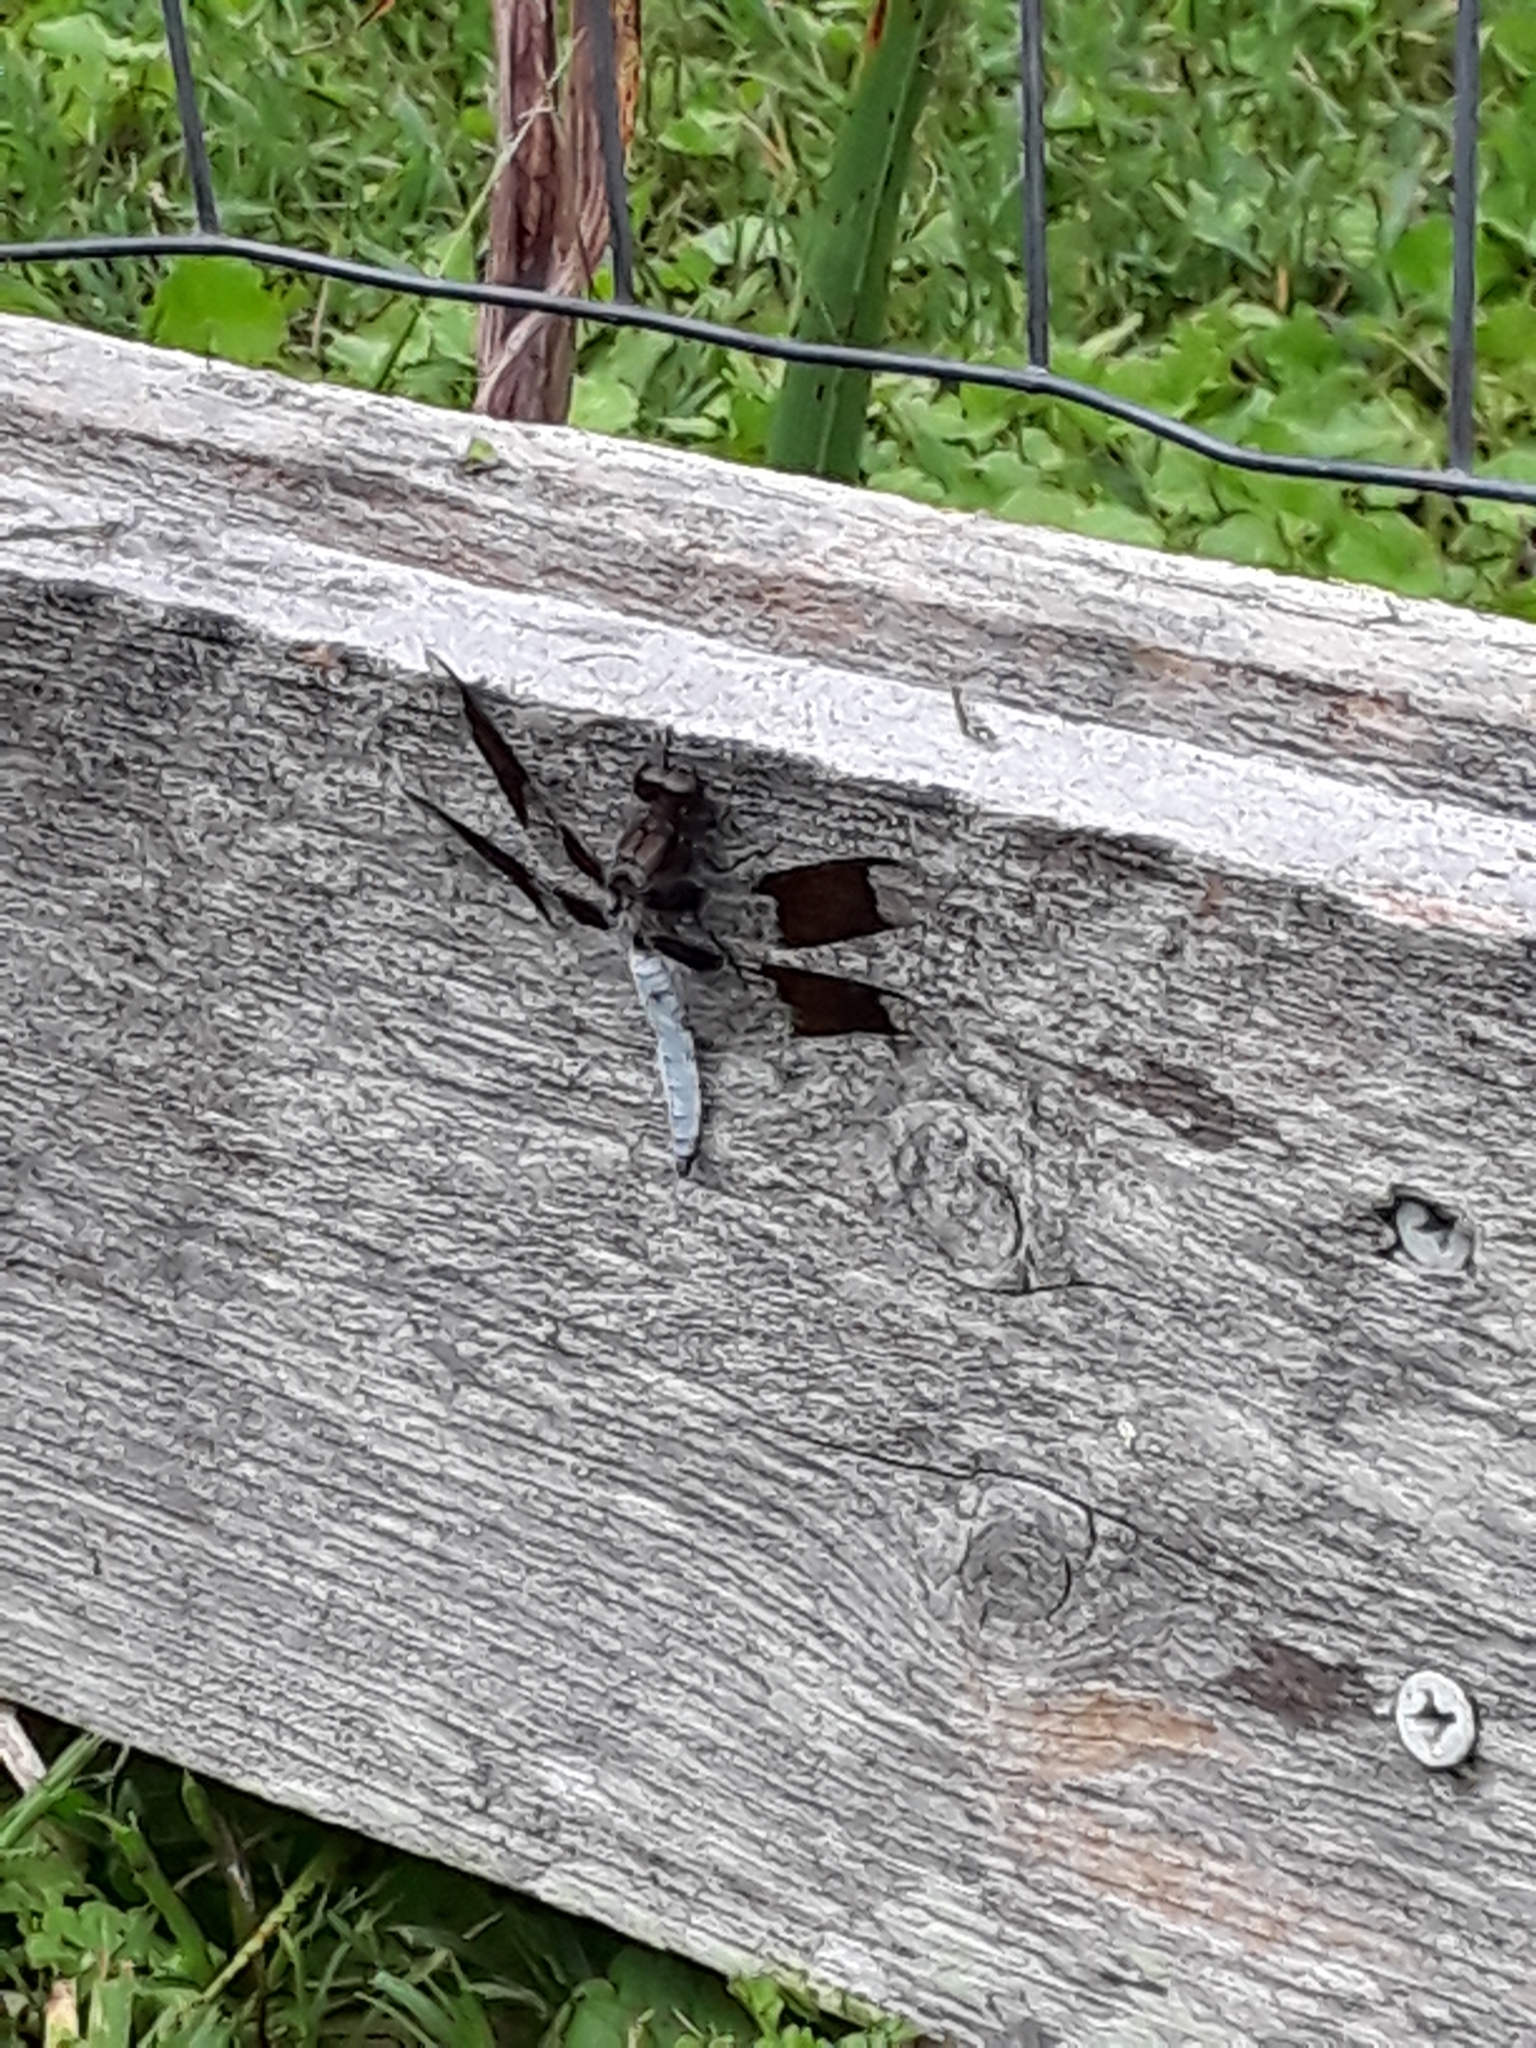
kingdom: Animalia
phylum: Arthropoda
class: Insecta
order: Odonata
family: Libellulidae
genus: Plathemis
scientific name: Plathemis lydia
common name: Common whitetail
